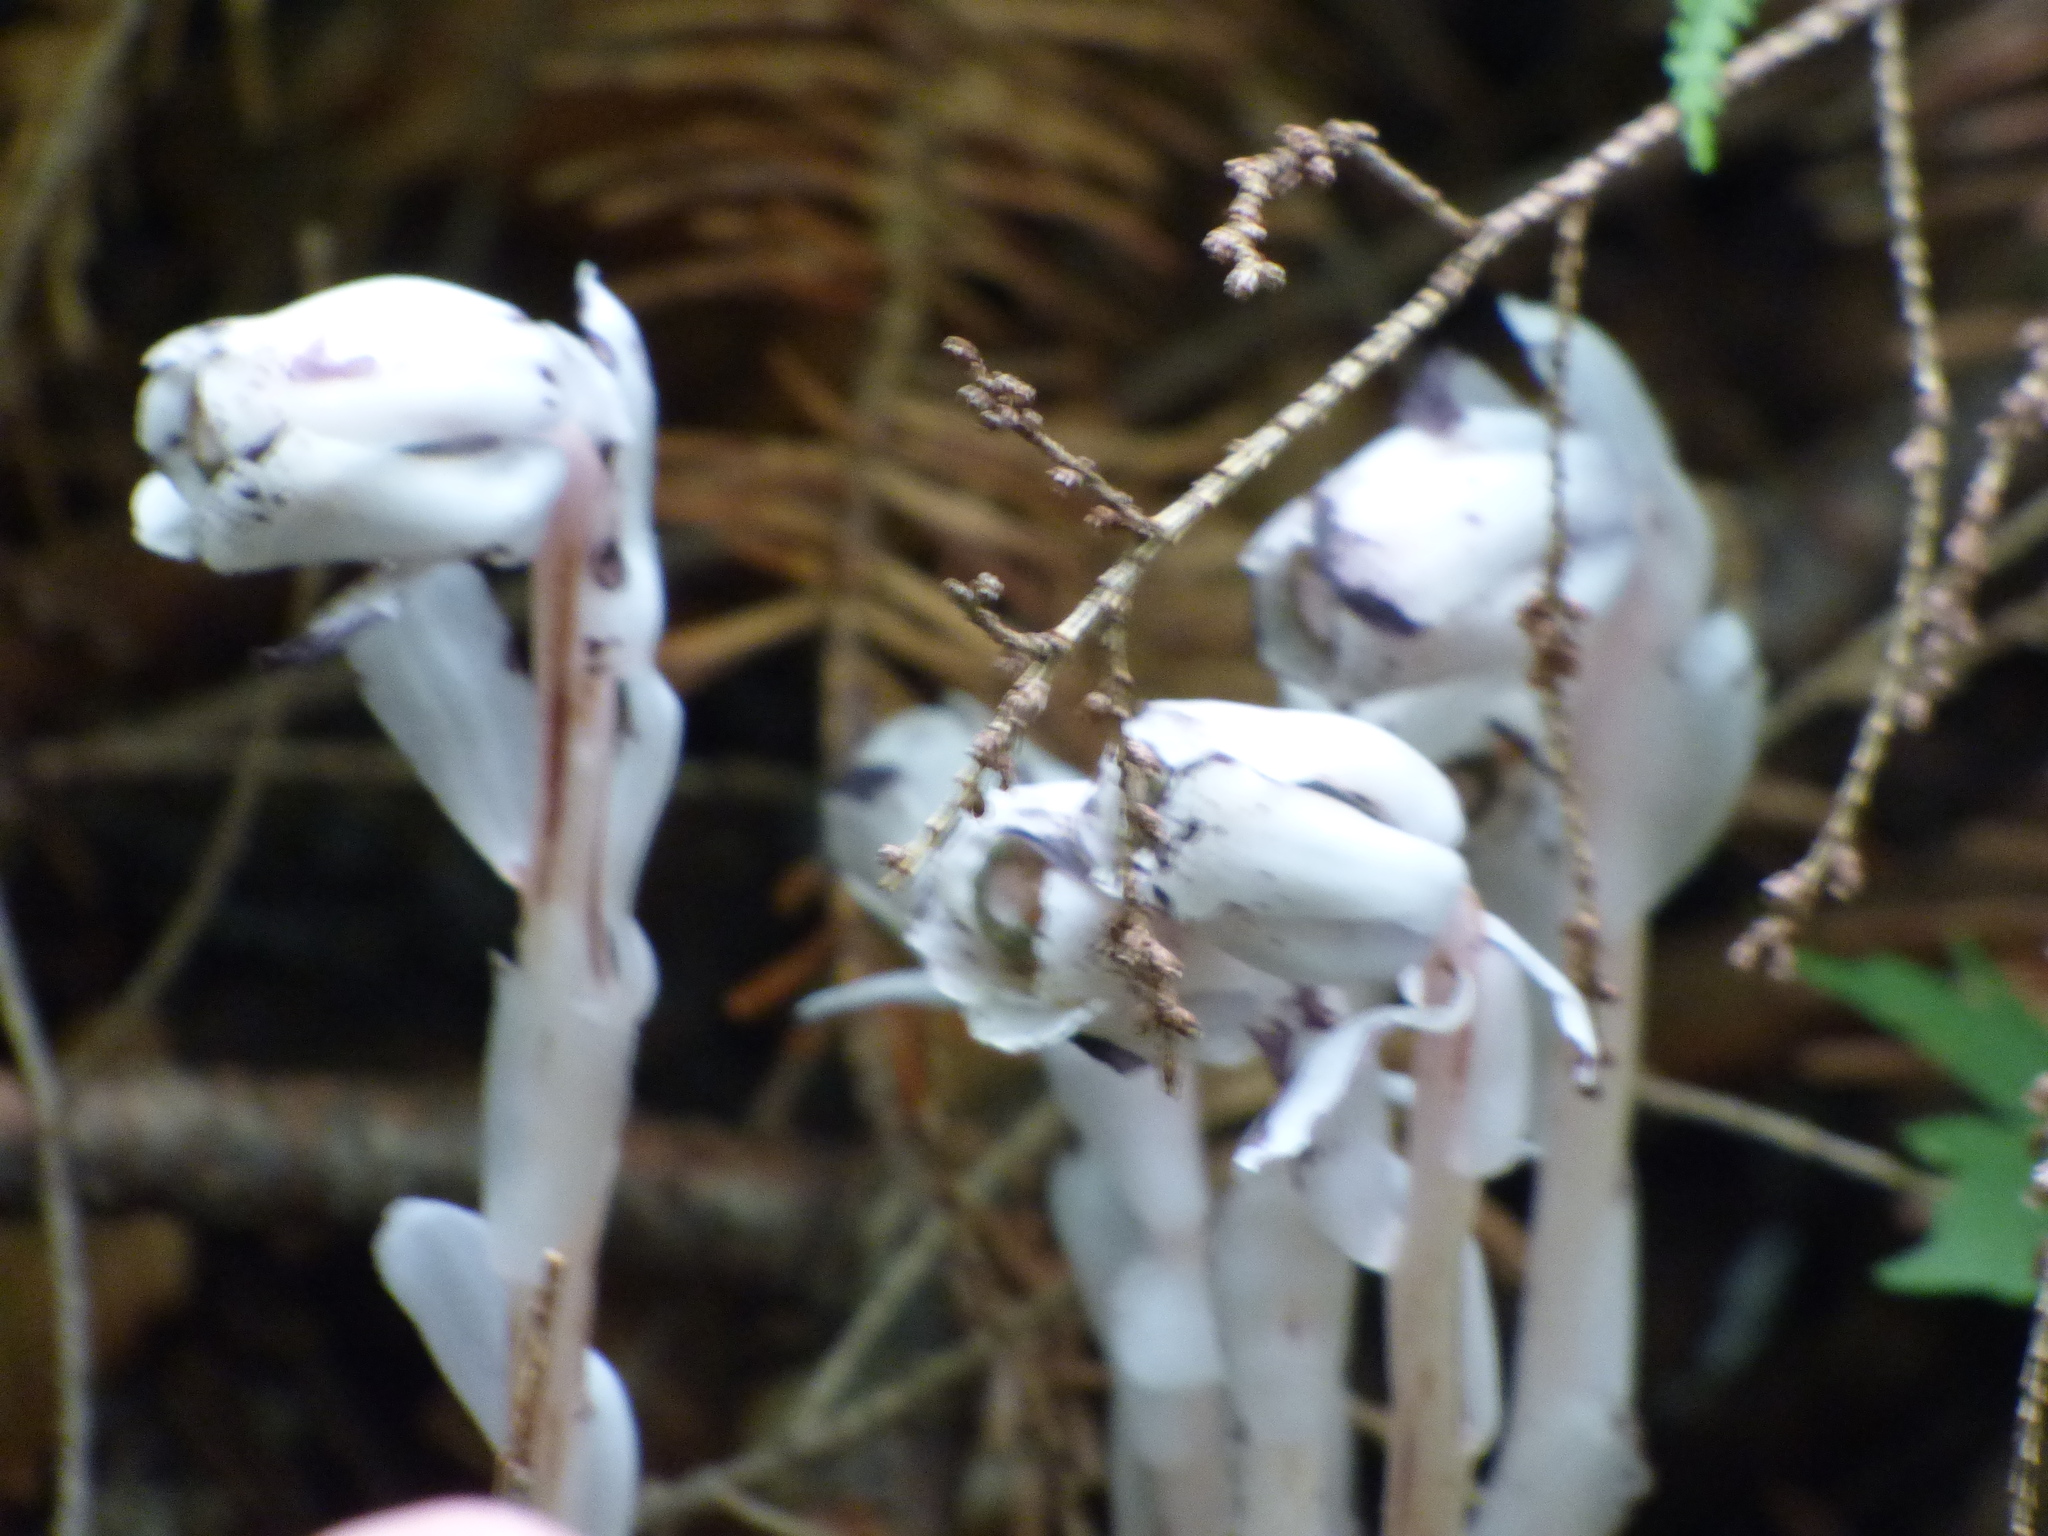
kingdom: Plantae
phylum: Tracheophyta
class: Magnoliopsida
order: Ericales
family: Ericaceae
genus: Monotropa
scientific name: Monotropa uniflora
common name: Convulsion root
